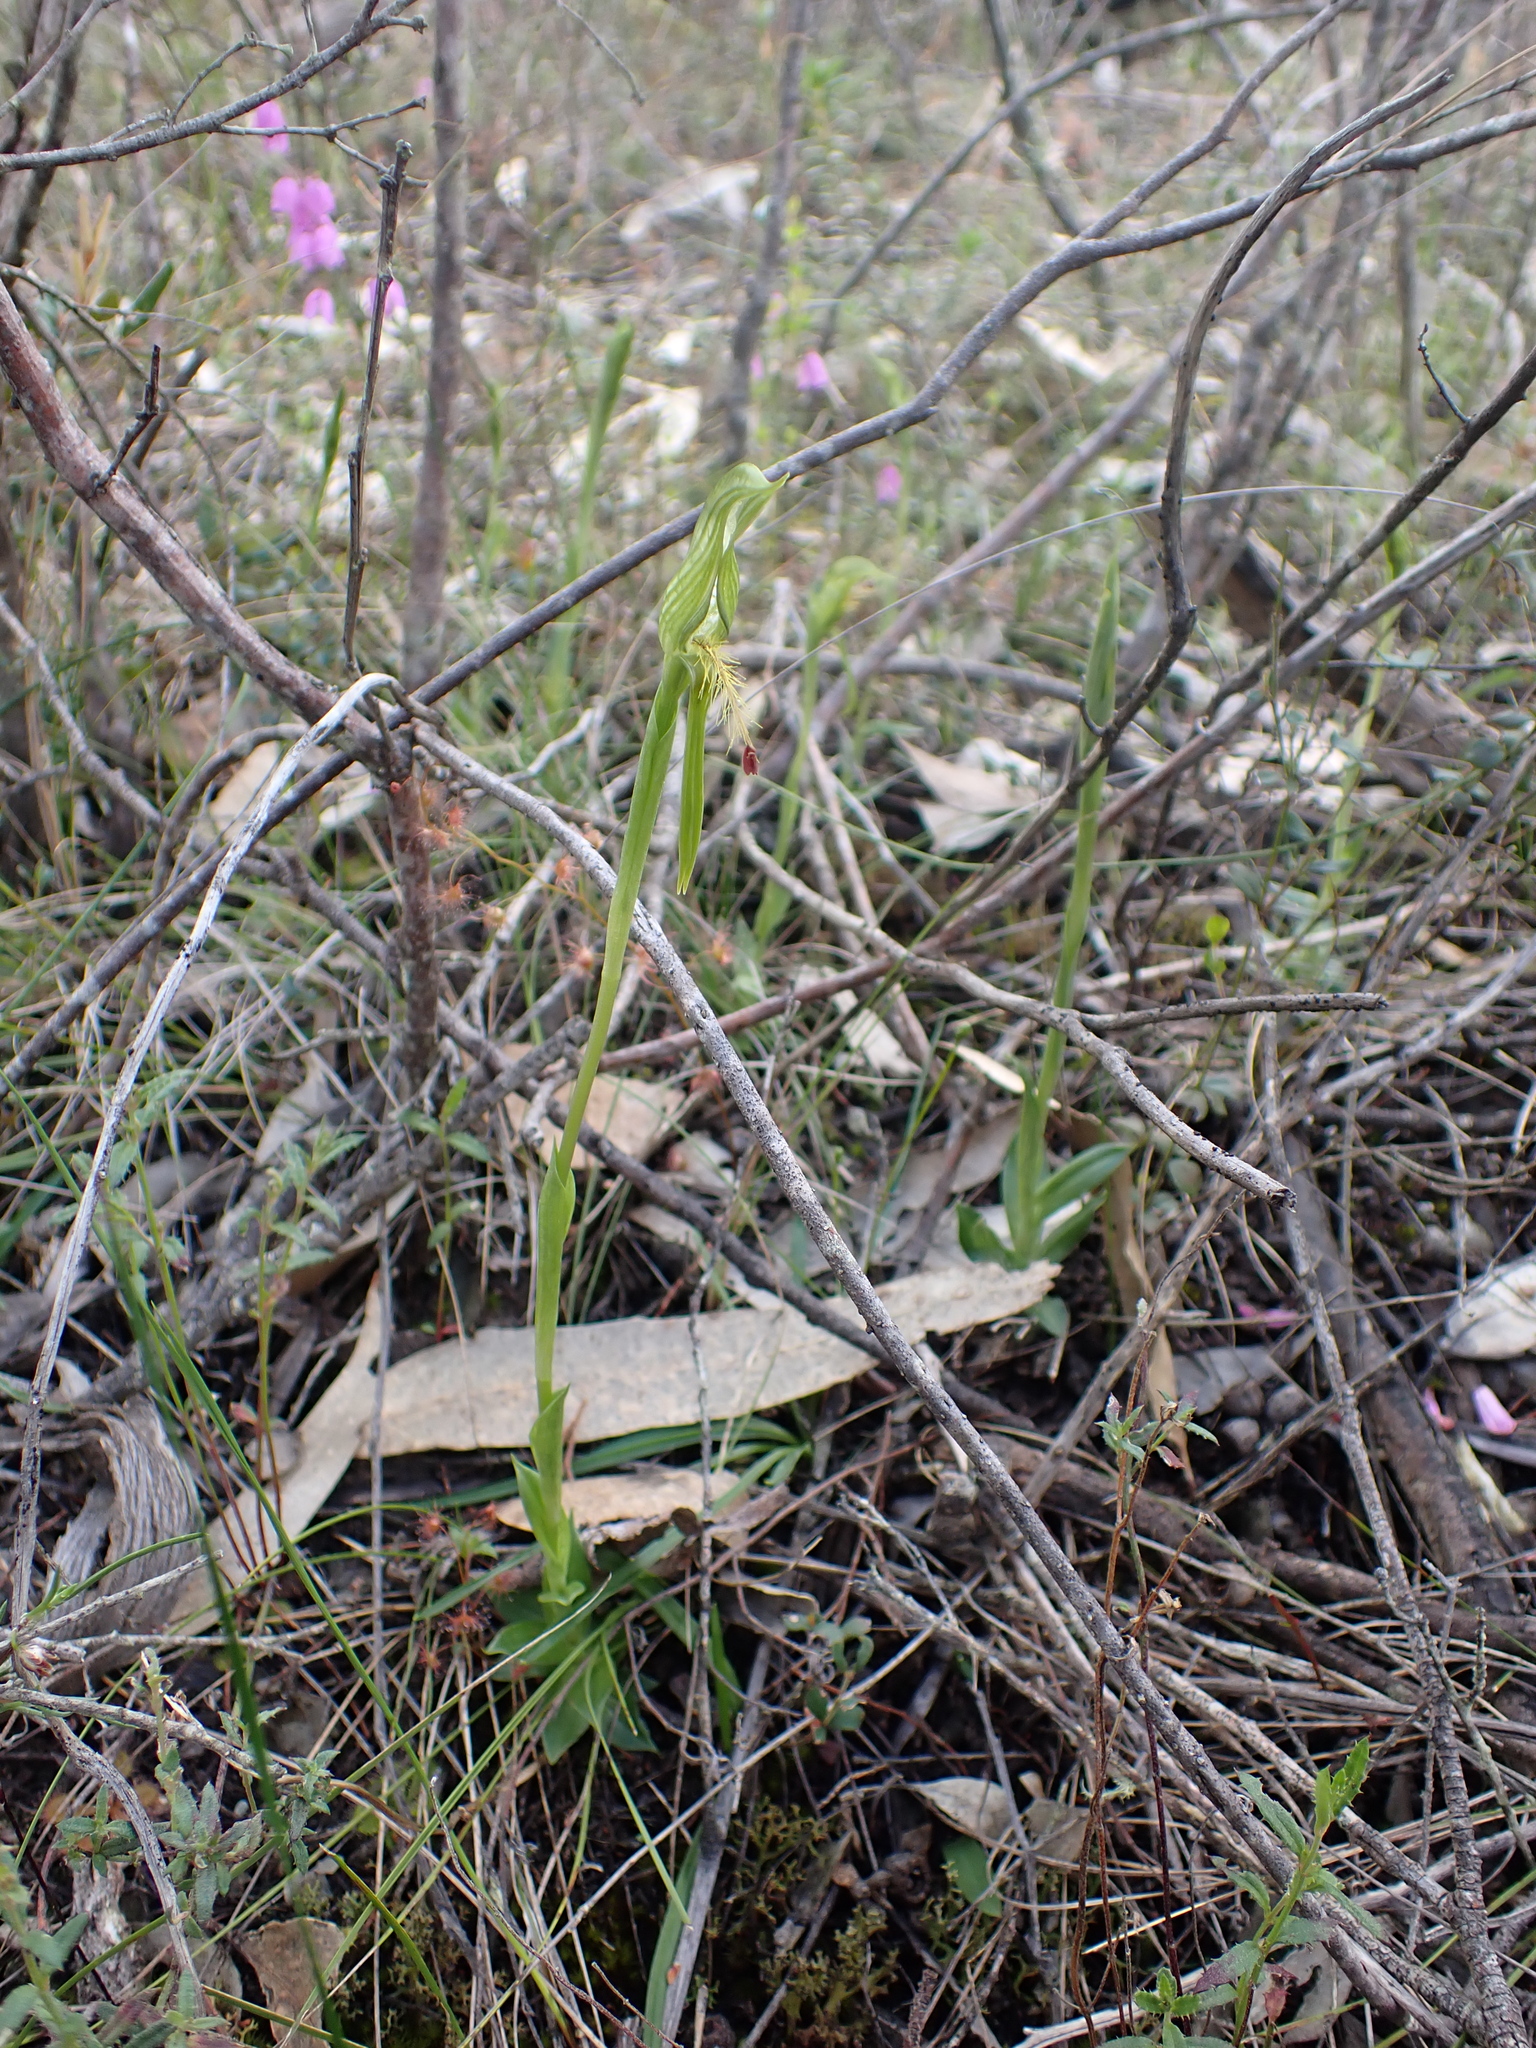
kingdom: Plantae
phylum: Tracheophyta
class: Liliopsida
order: Asparagales
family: Orchidaceae
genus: Pterostylis
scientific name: Pterostylis plumosa
